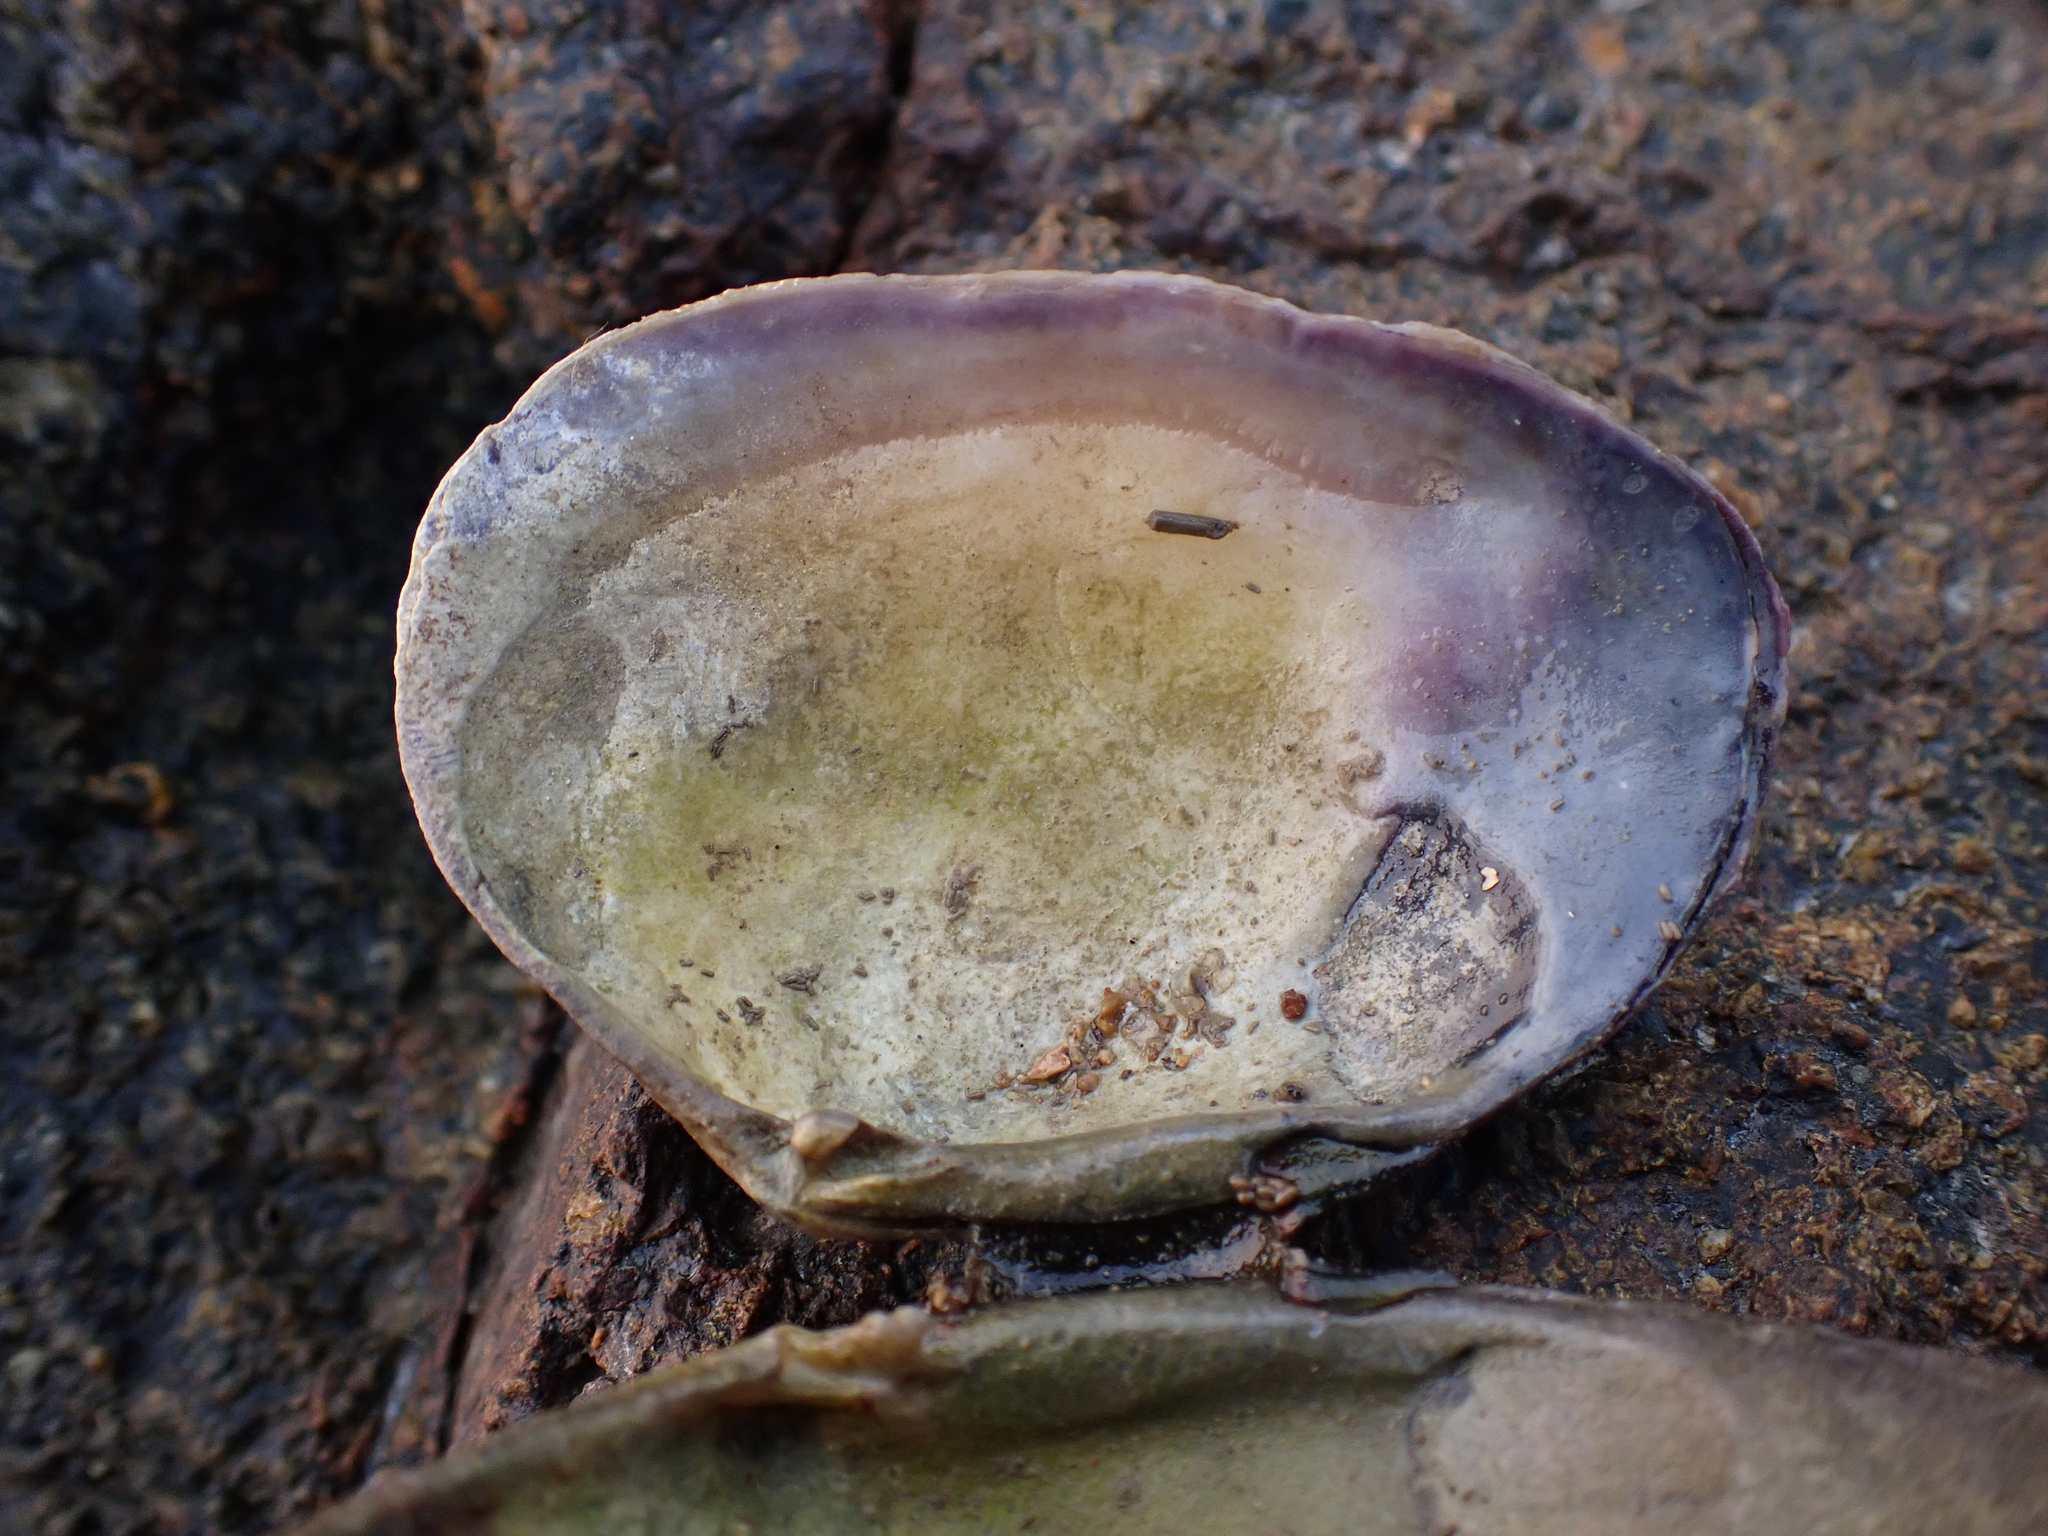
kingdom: Animalia
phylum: Mollusca
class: Bivalvia
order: Cardiida
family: Psammobiidae
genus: Asaphis
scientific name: Asaphis violascens
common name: Pacific asaphis
